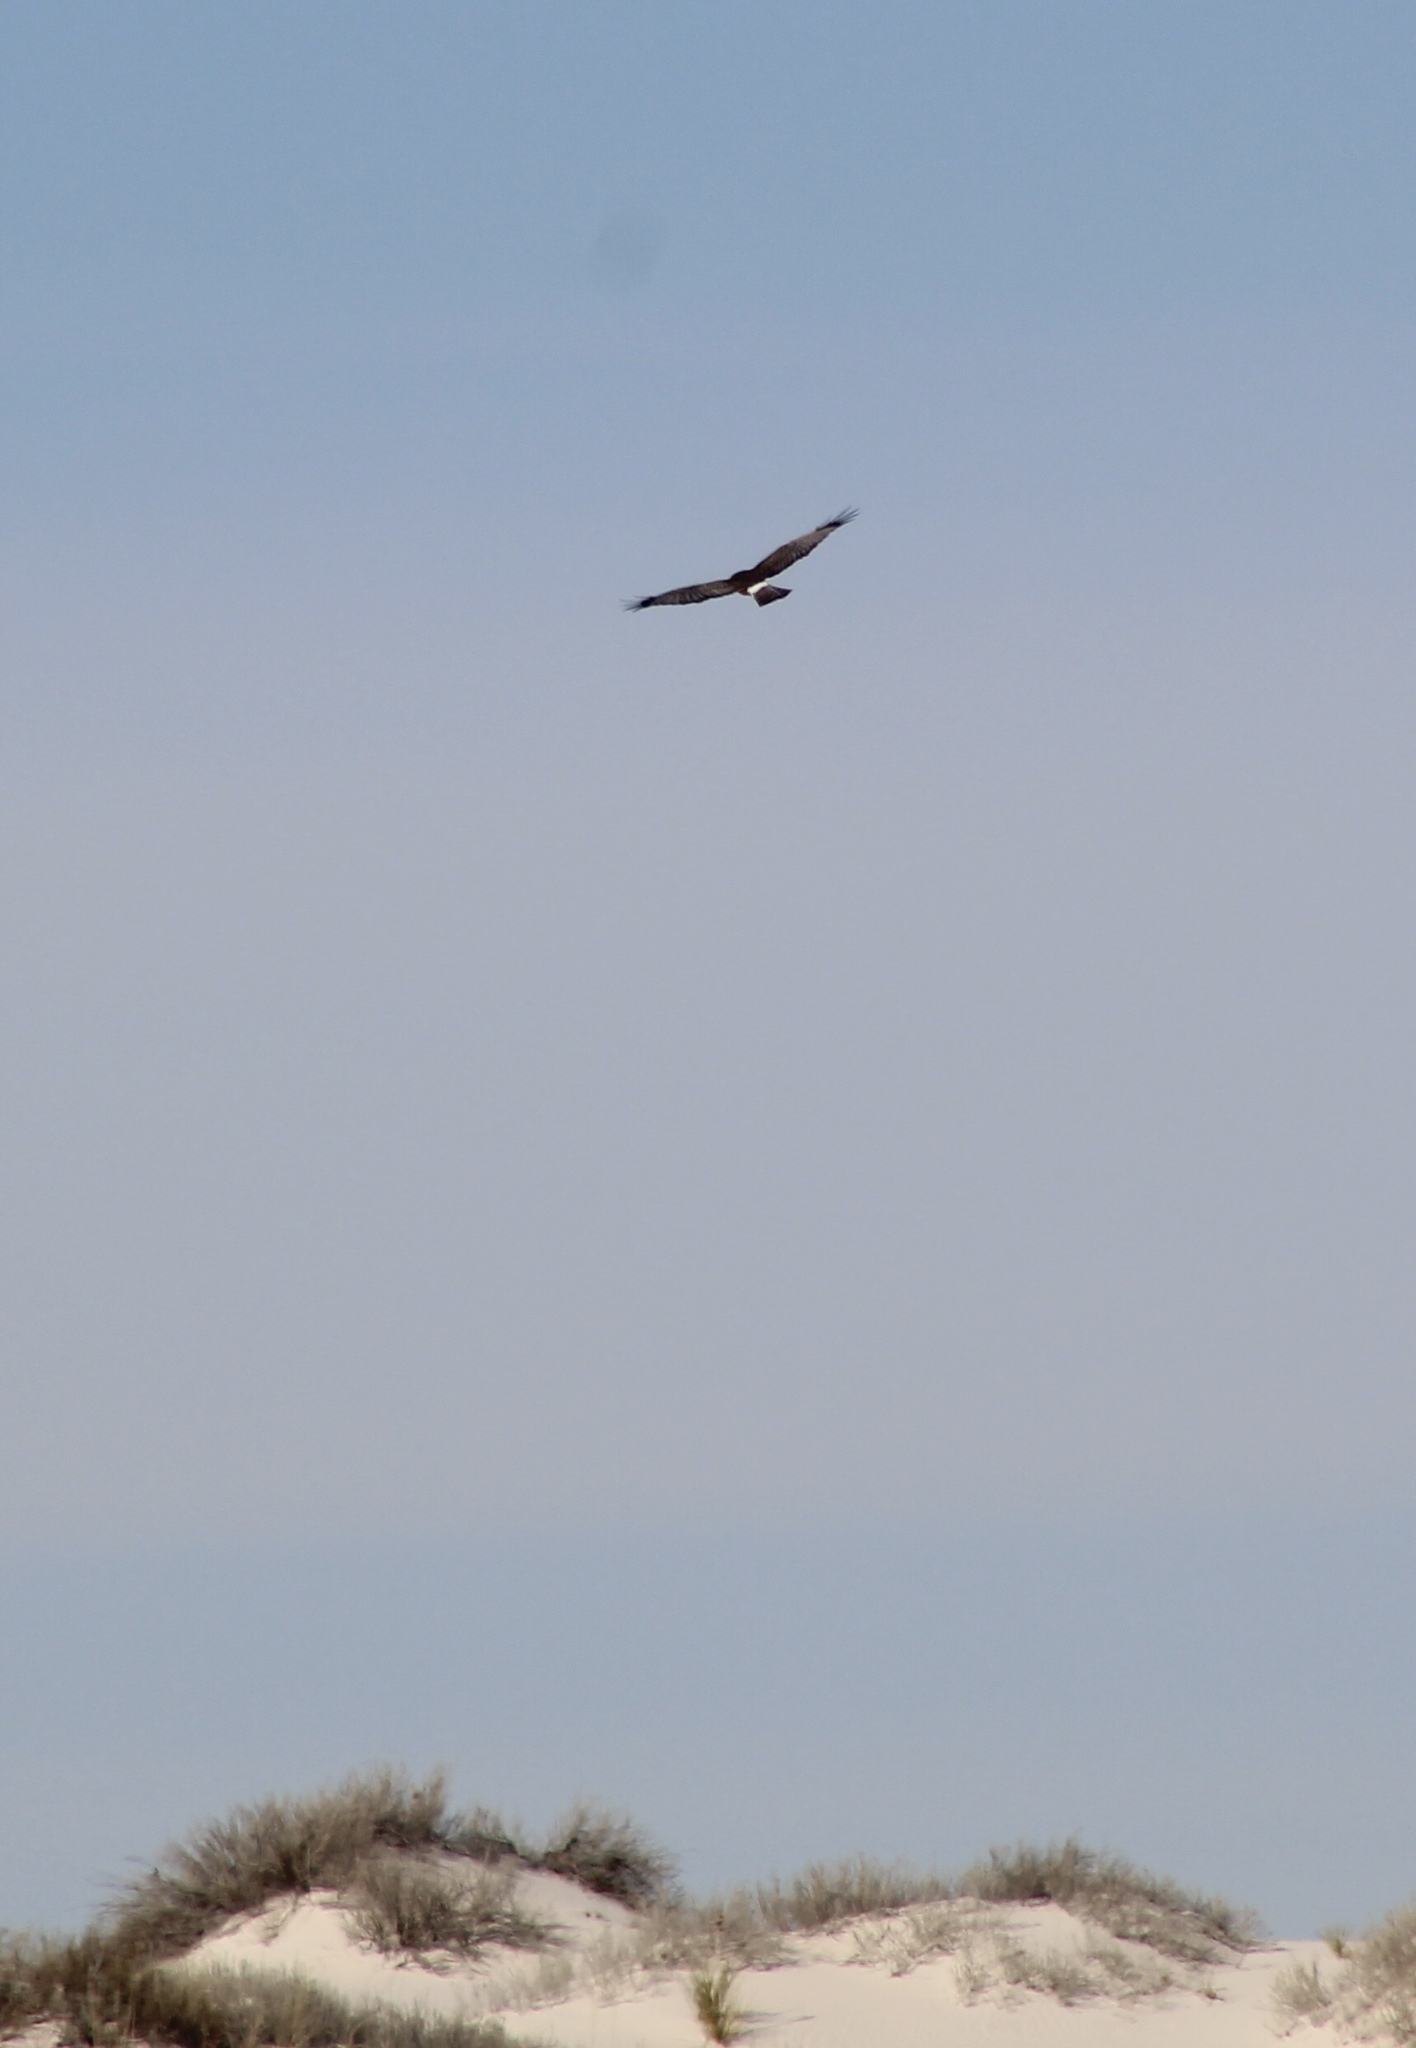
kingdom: Animalia
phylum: Chordata
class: Aves
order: Accipitriformes
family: Accipitridae
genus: Circus
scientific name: Circus cyaneus
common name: Hen harrier
